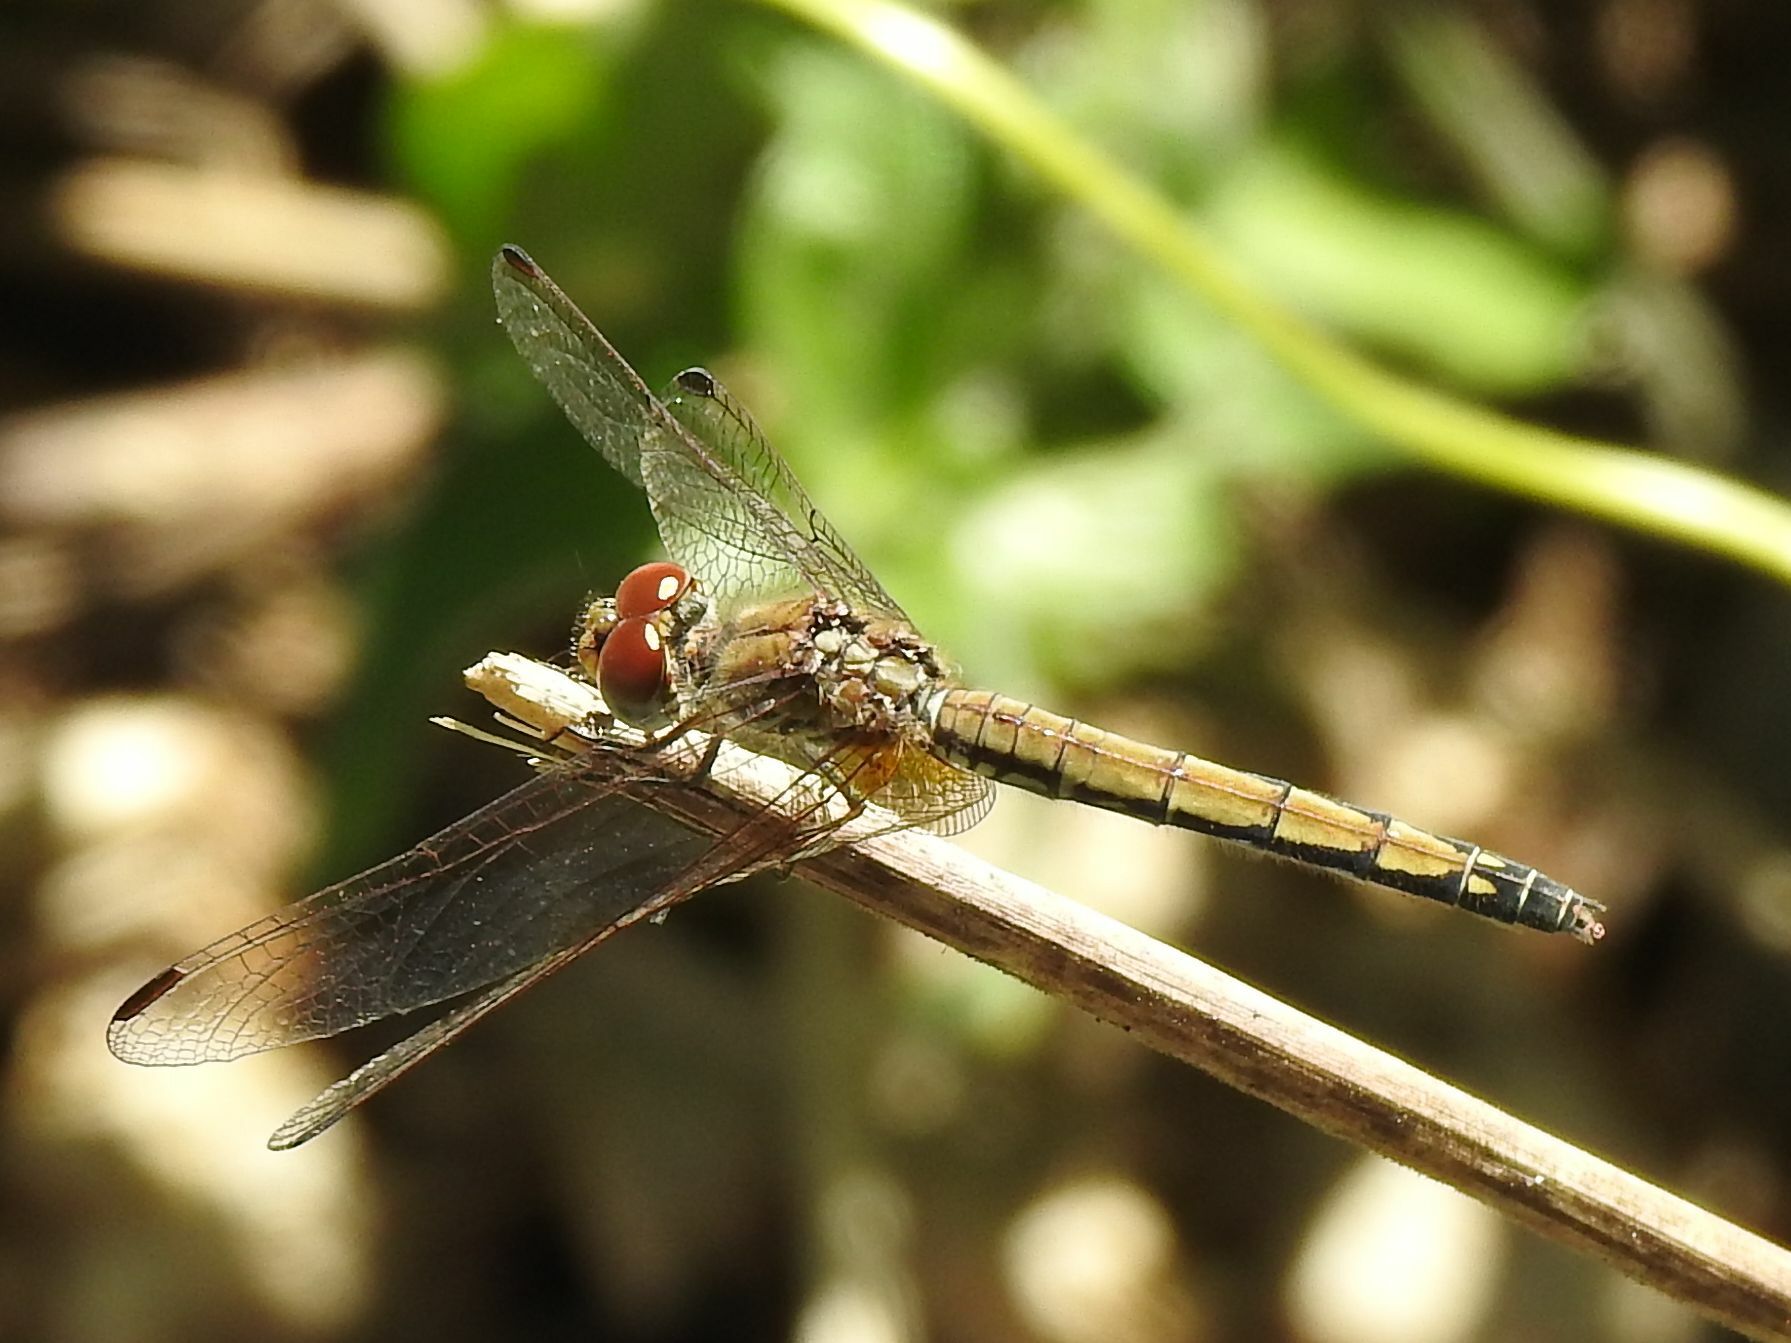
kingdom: Animalia
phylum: Arthropoda
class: Insecta
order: Odonata
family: Libellulidae
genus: Trithemis
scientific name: Trithemis arteriosa
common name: Red-veined dropwing
